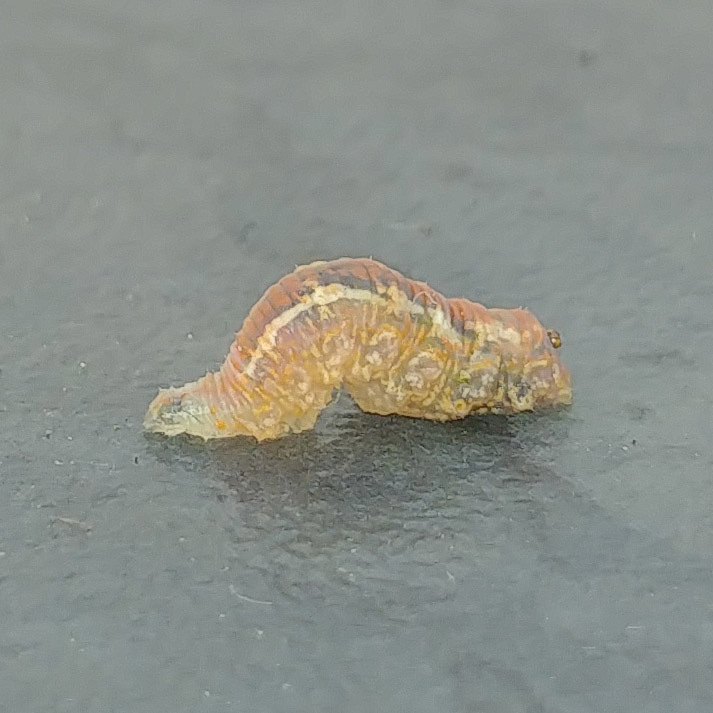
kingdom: Animalia
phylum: Arthropoda
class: Insecta
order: Diptera
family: Syrphidae
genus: Syrphus
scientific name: Syrphus
